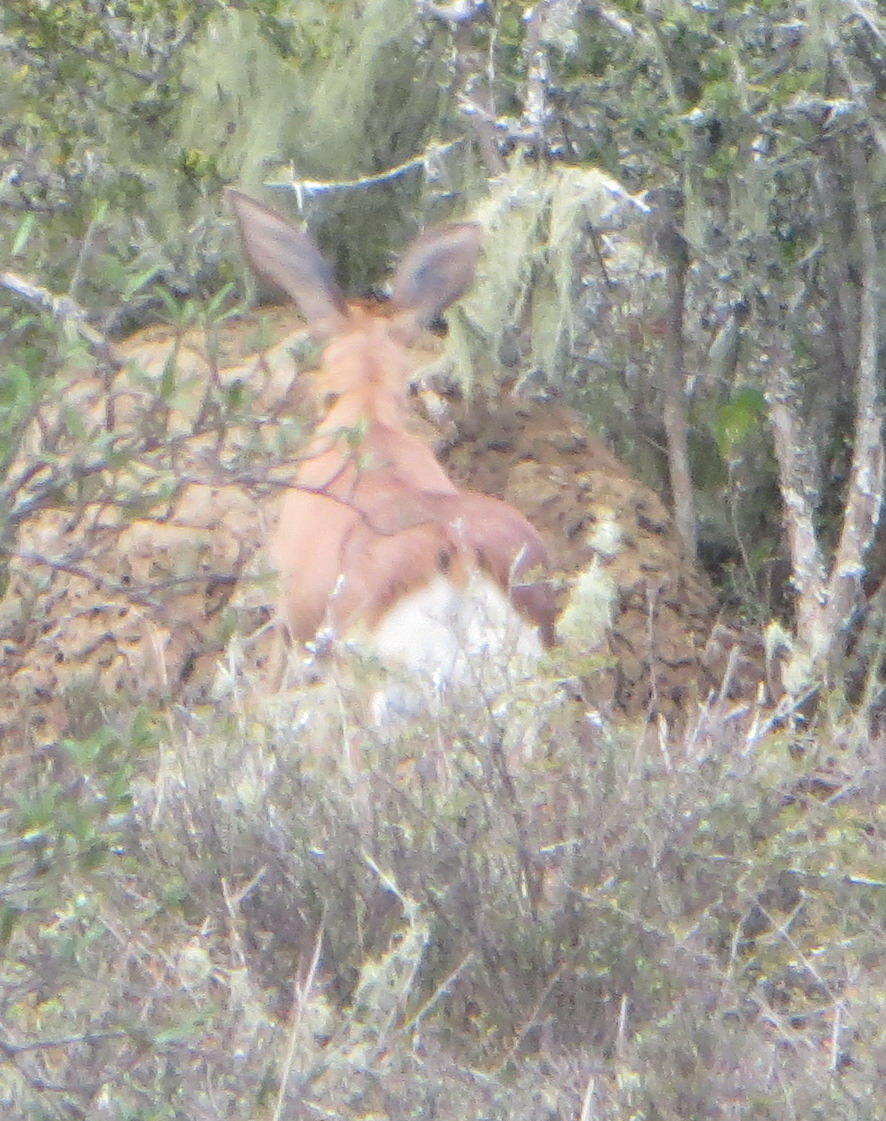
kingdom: Animalia
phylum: Chordata
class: Mammalia
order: Artiodactyla
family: Bovidae
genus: Raphicerus
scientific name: Raphicerus campestris
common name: Steenbok
